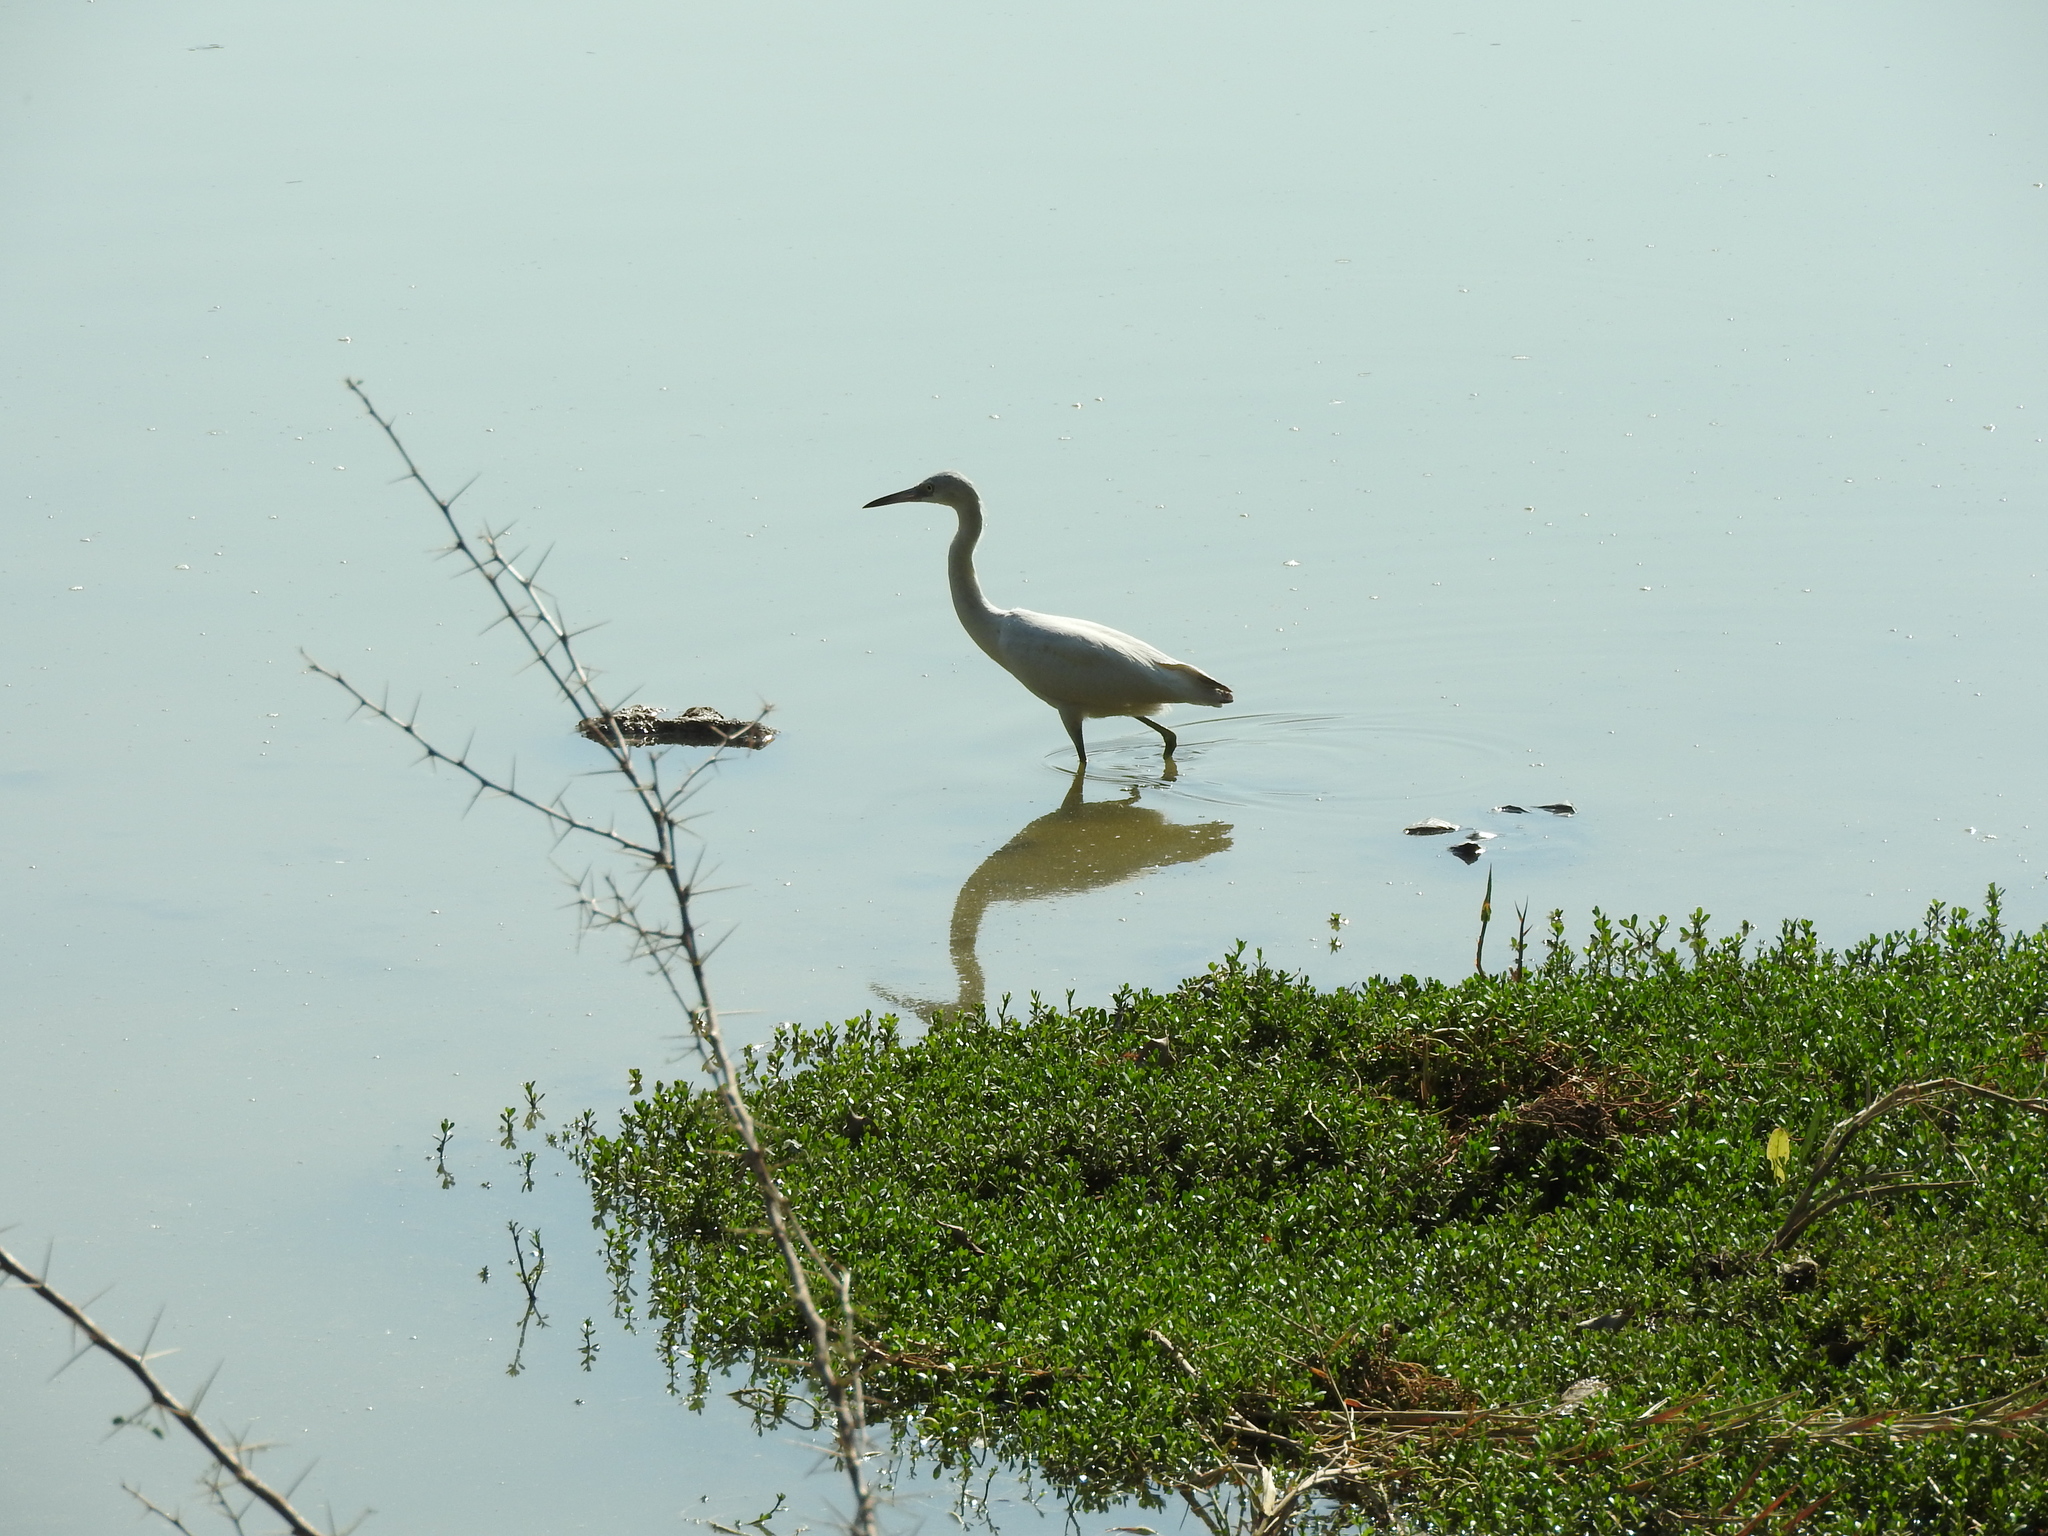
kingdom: Animalia
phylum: Chordata
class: Aves
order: Pelecaniformes
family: Ardeidae
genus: Egretta
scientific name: Egretta caerulea
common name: Little blue heron
